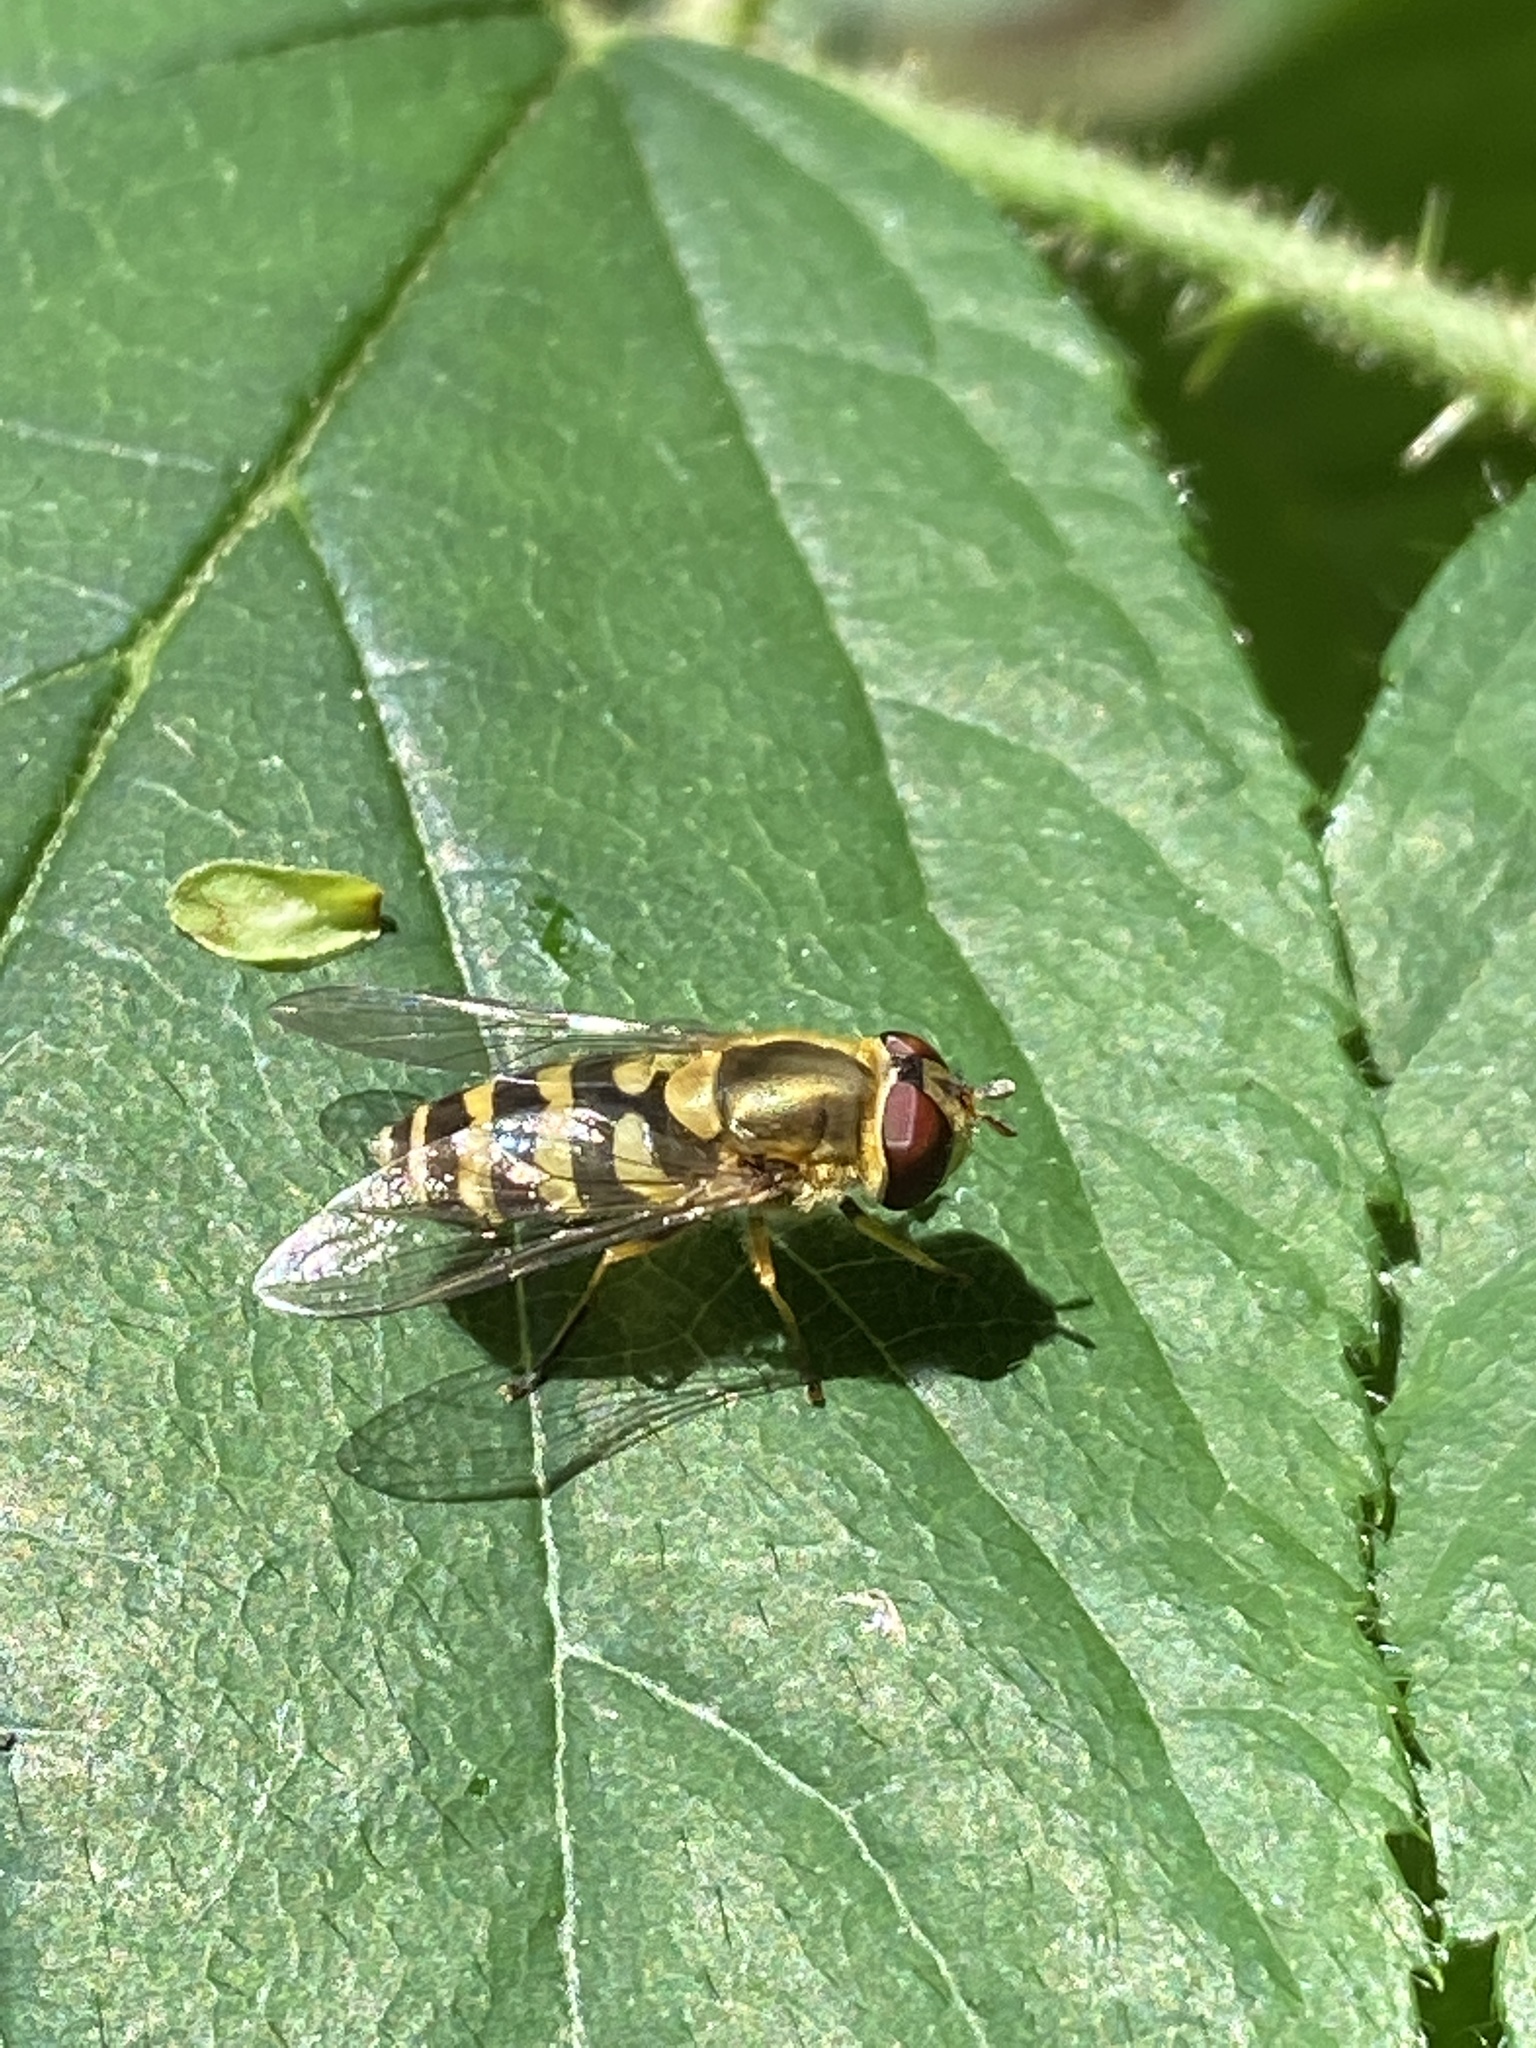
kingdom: Animalia
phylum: Arthropoda
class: Insecta
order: Diptera
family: Syrphidae
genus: Syrphus
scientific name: Syrphus
